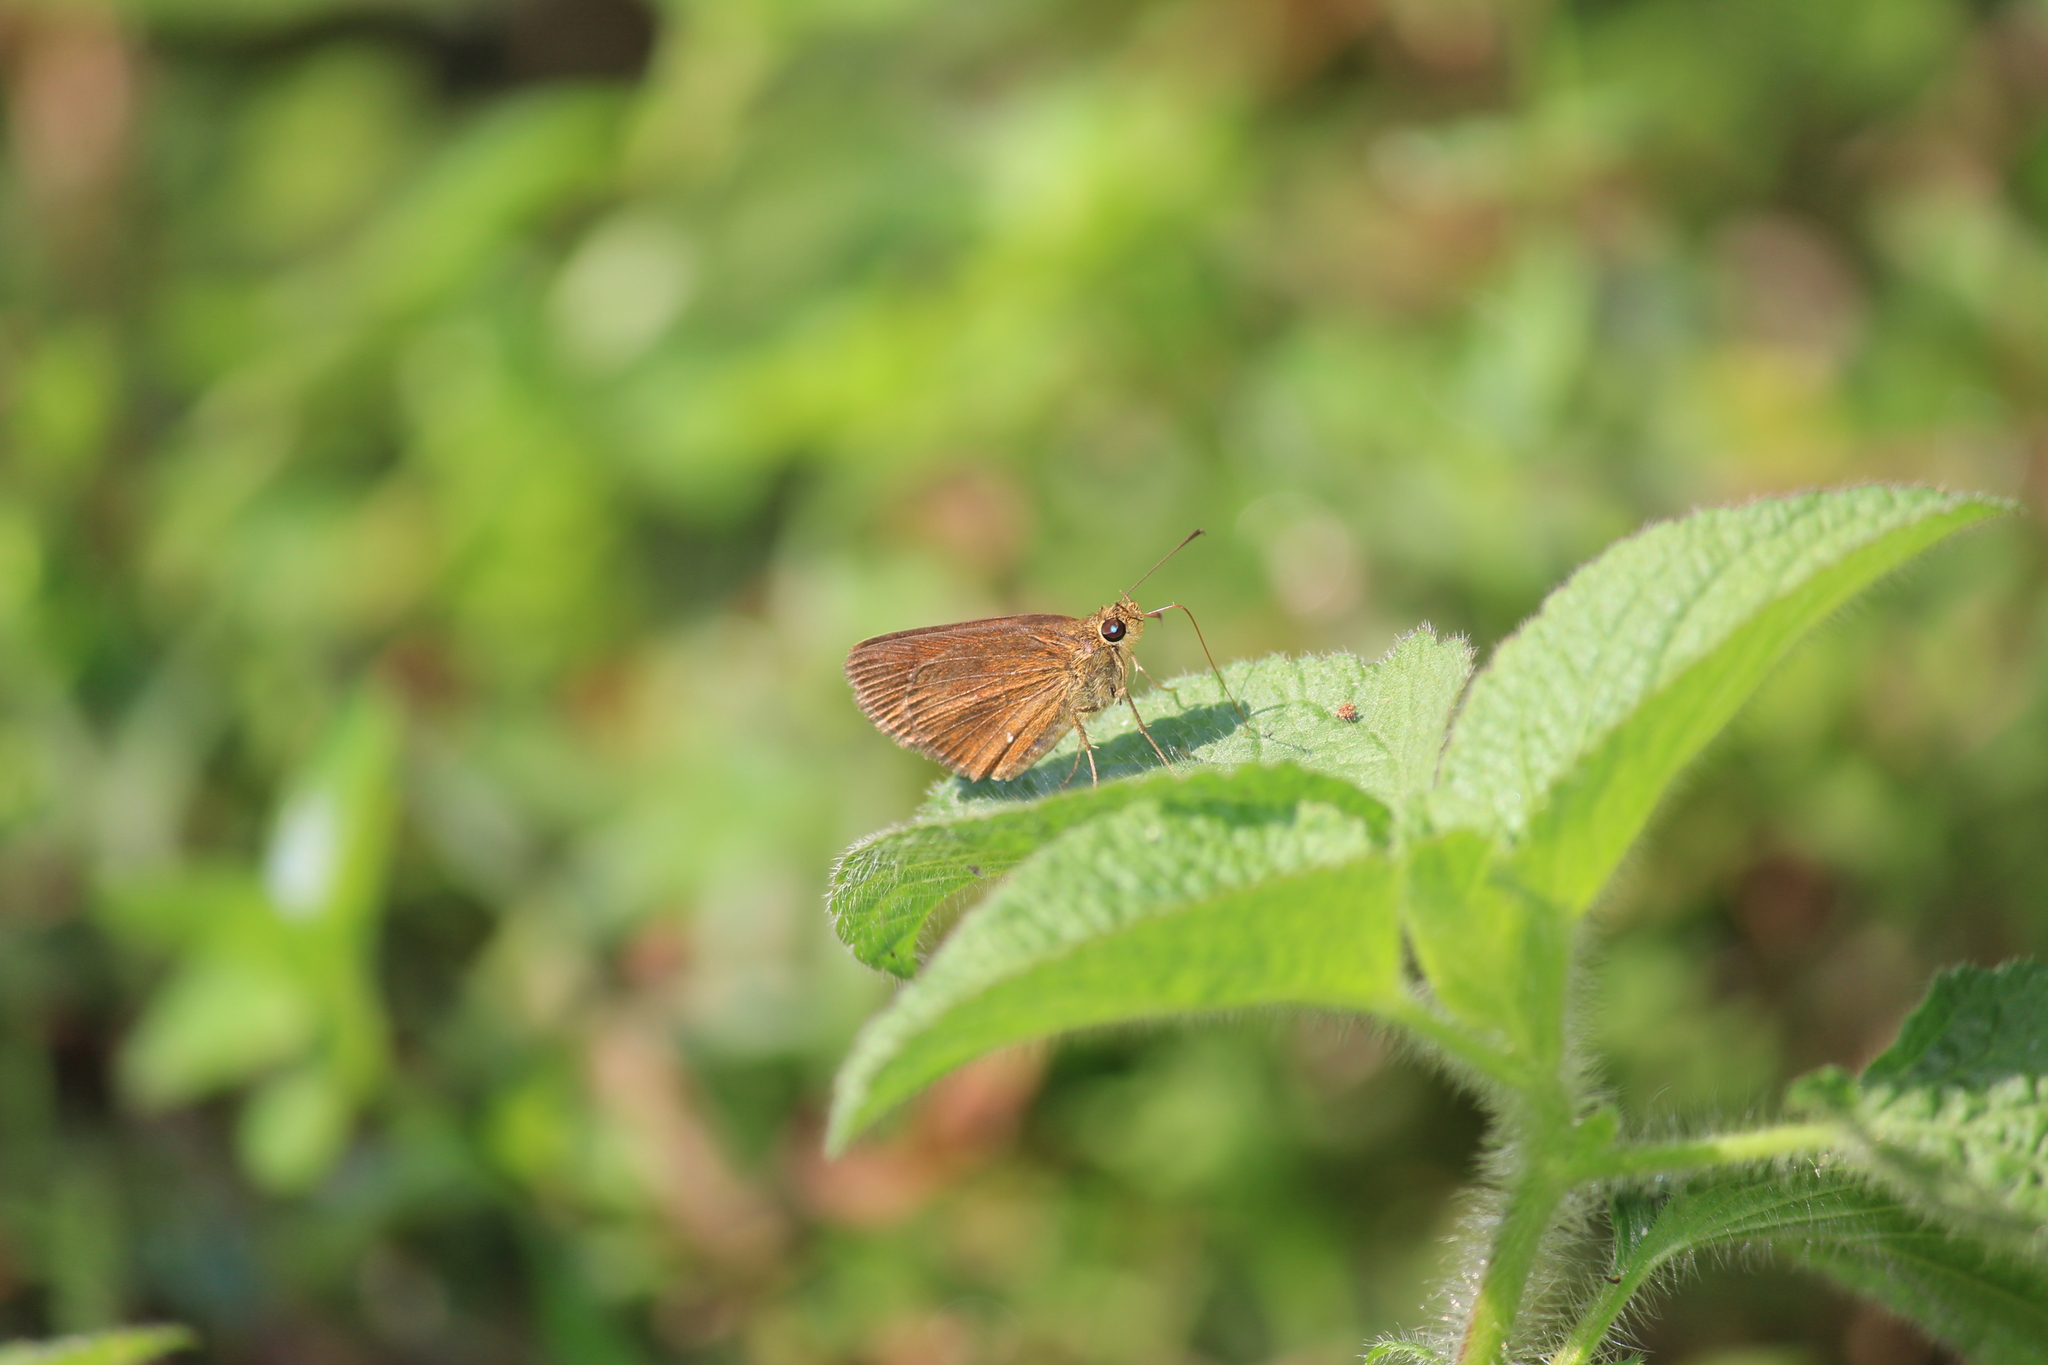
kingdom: Animalia
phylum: Arthropoda
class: Insecta
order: Lepidoptera
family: Hesperiidae
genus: Iambrix
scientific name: Iambrix salsala
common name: Chestnut bob
